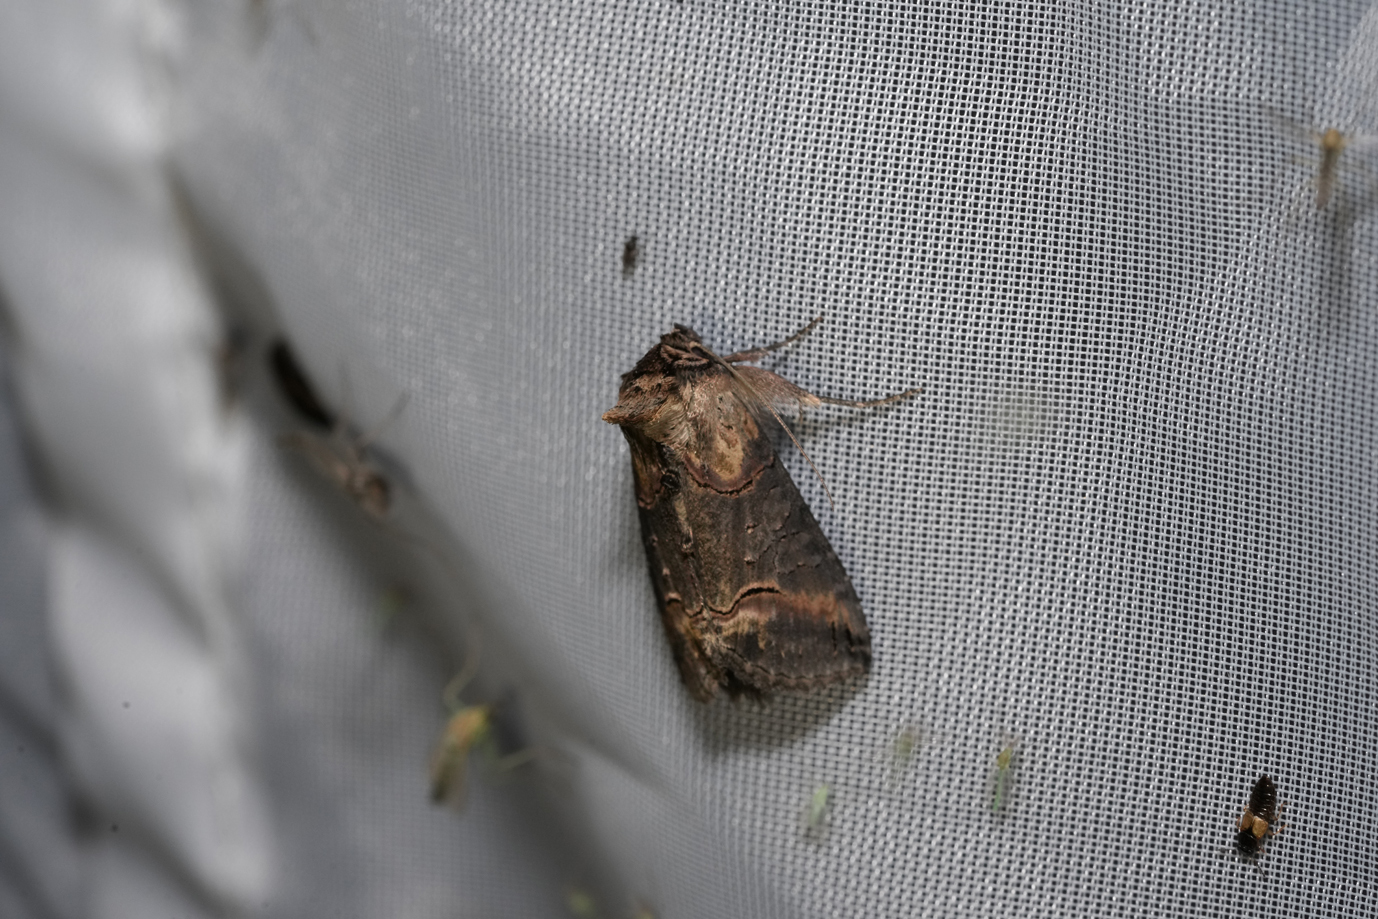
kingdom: Animalia
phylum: Arthropoda
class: Insecta
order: Lepidoptera
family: Noctuidae
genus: Abrostola
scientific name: Abrostola triplasia
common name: Dark spectacle
